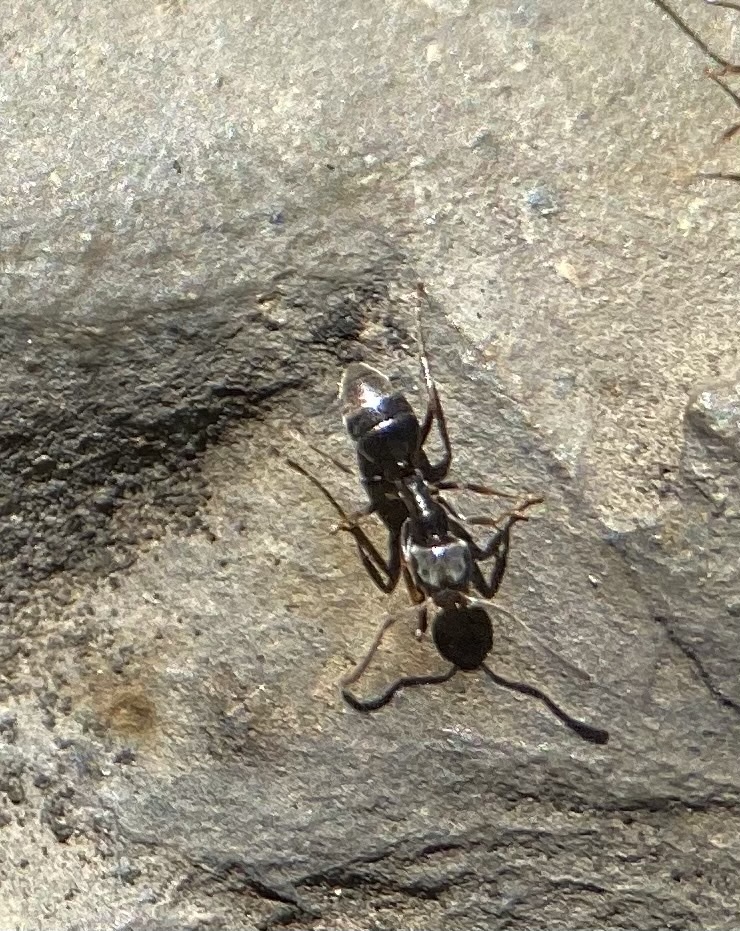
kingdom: Animalia
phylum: Arthropoda
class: Insecta
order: Hymenoptera
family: Formicidae
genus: Tapinoma
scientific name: Tapinoma sessile
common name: Odorous house ant
